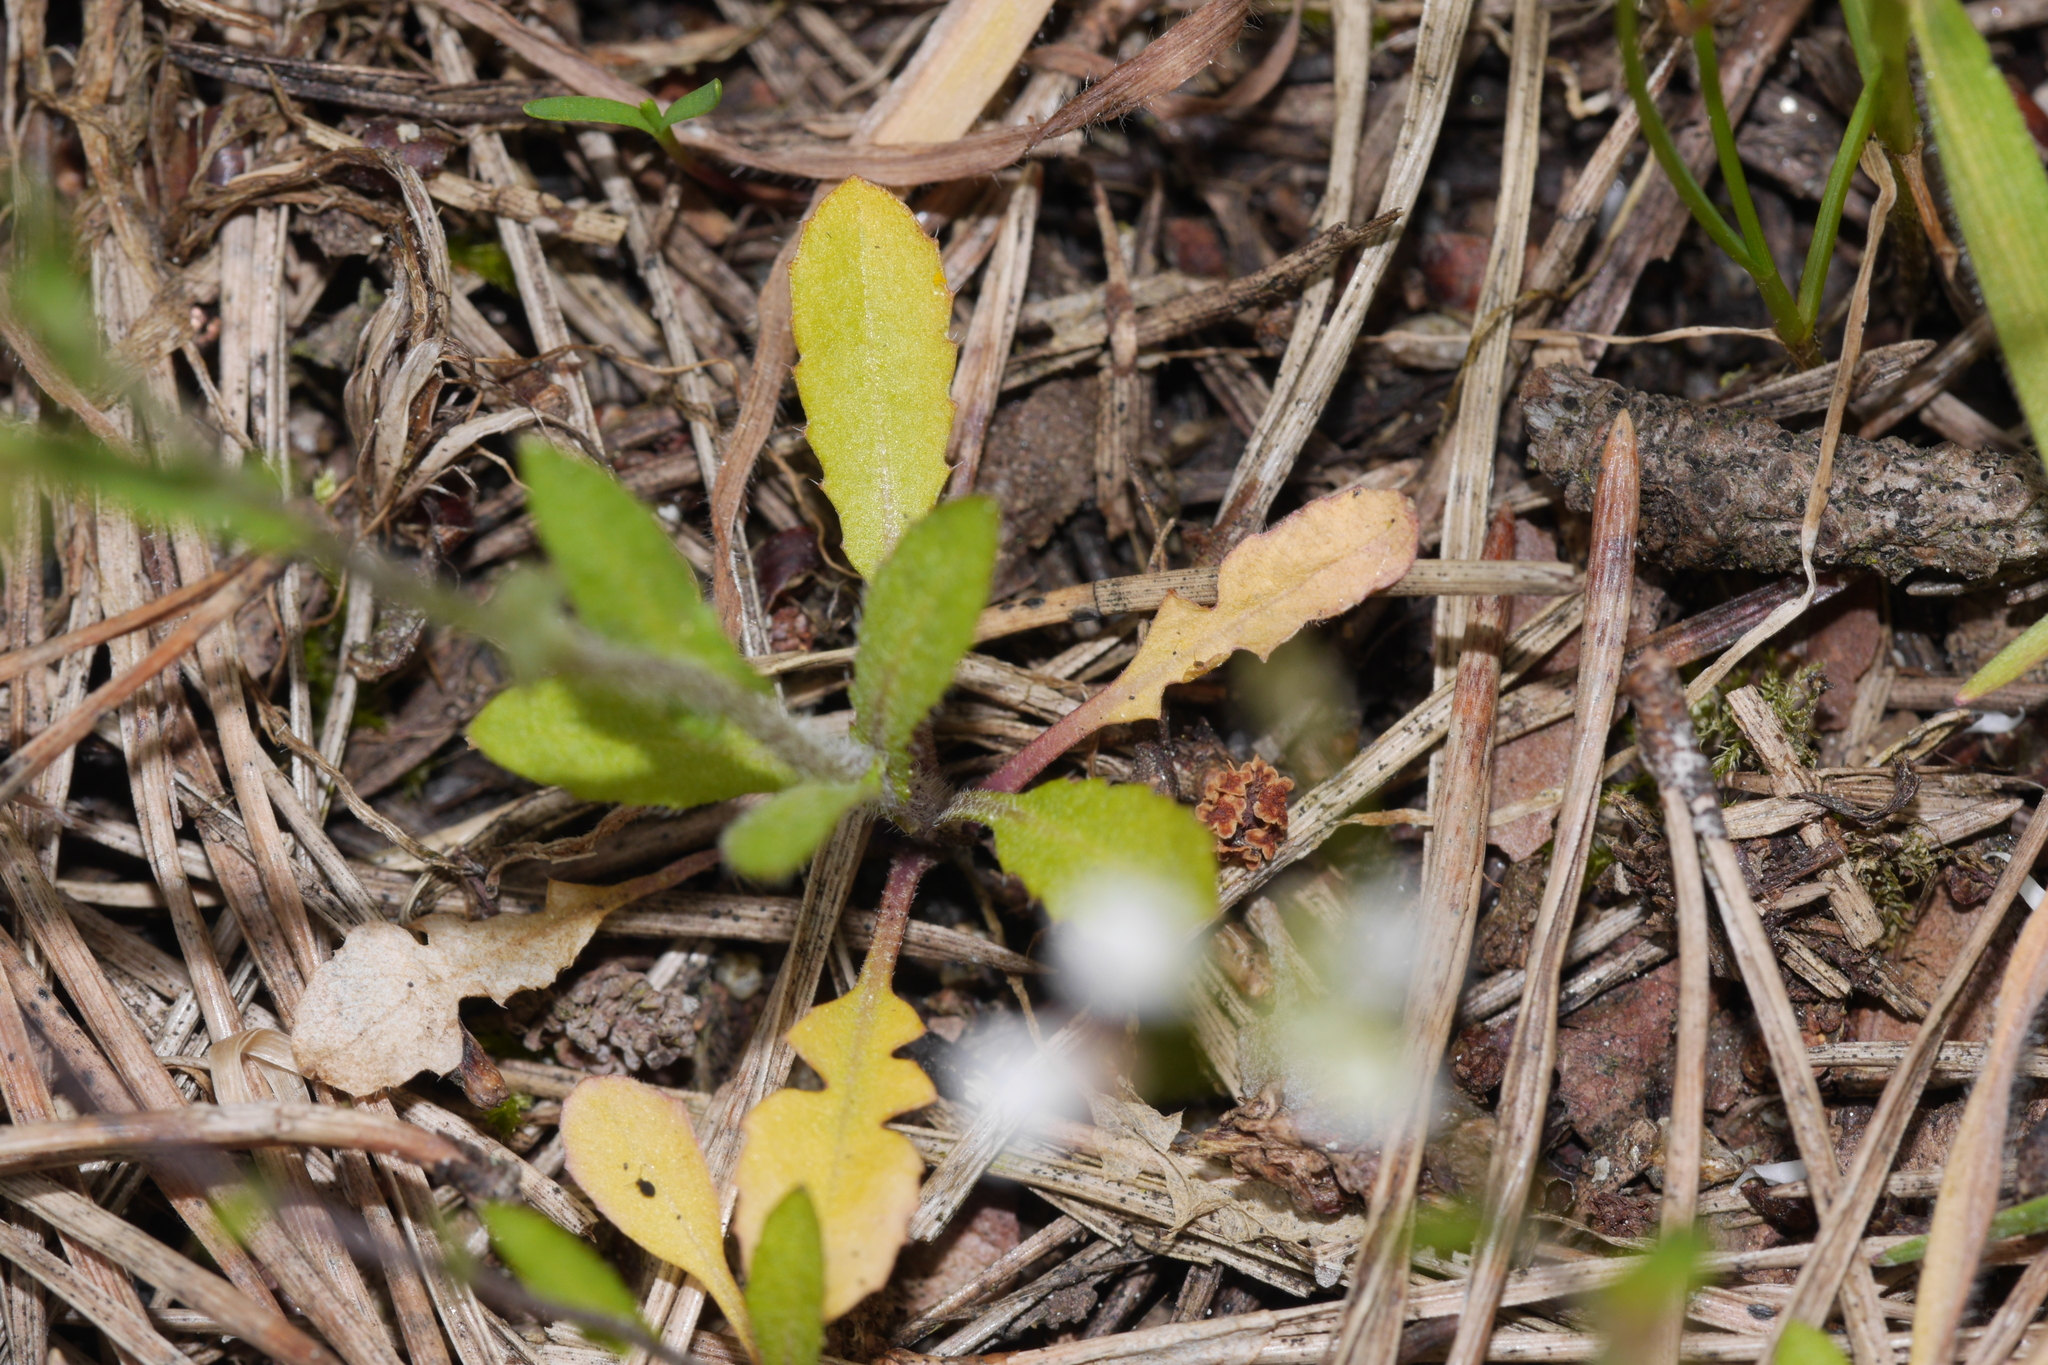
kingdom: Plantae
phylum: Tracheophyta
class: Magnoliopsida
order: Brassicales
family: Brassicaceae
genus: Capsella
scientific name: Capsella bursa-pastoris
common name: Shepherd's purse
